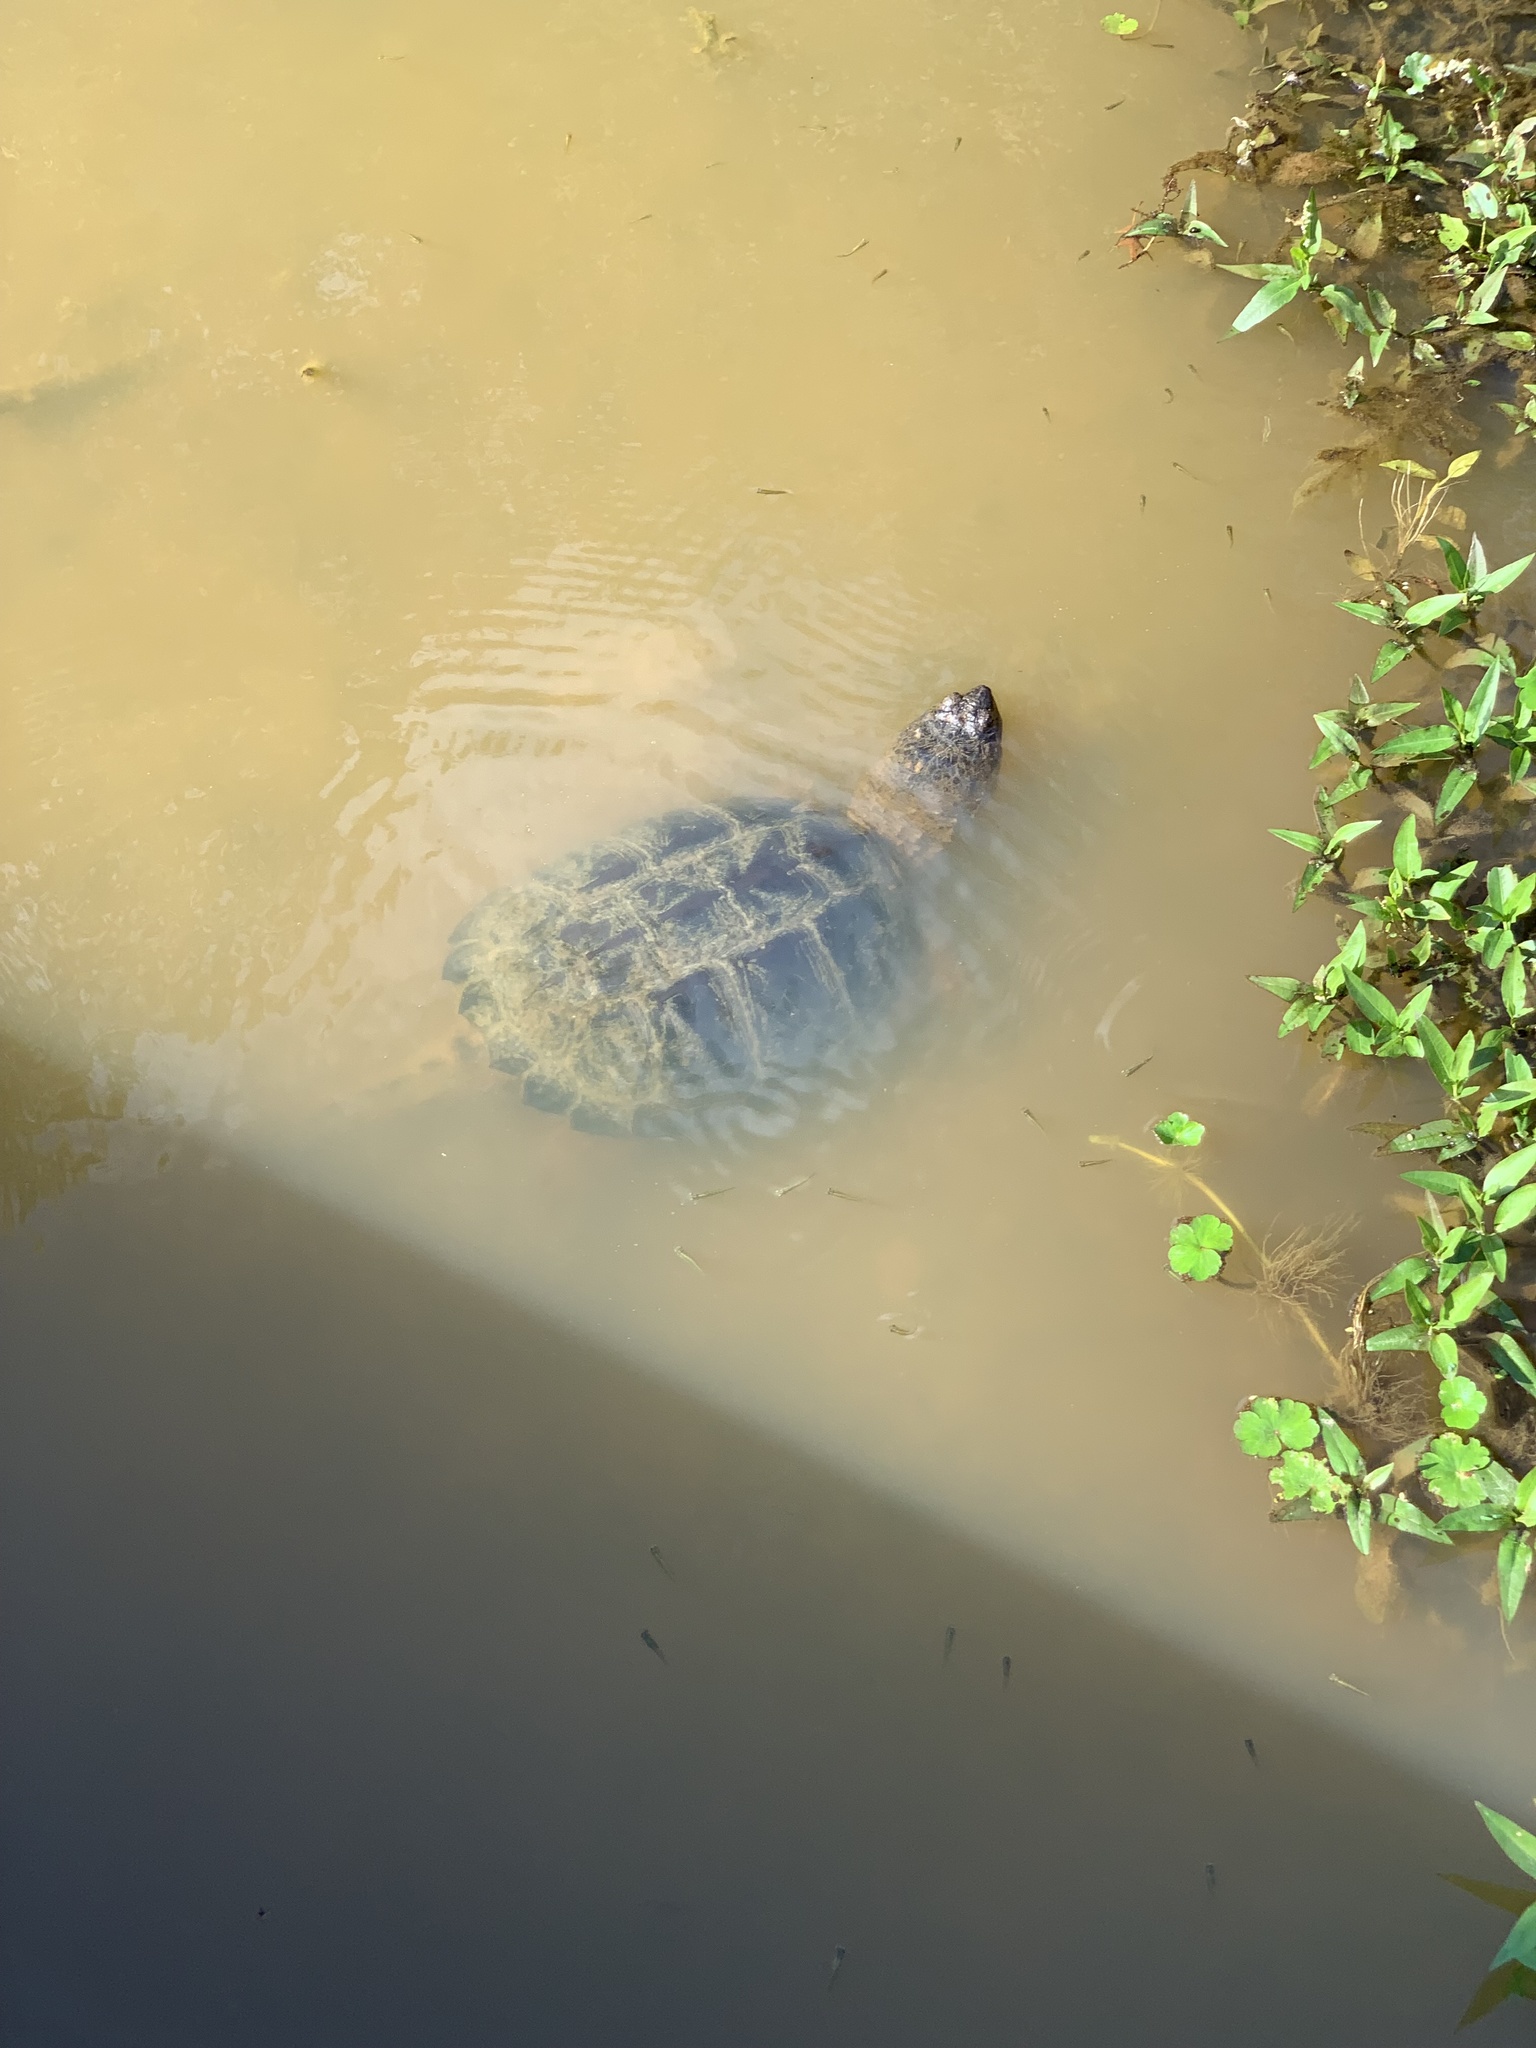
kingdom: Animalia
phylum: Chordata
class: Testudines
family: Chelydridae
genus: Chelydra
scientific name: Chelydra serpentina
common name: Common snapping turtle
